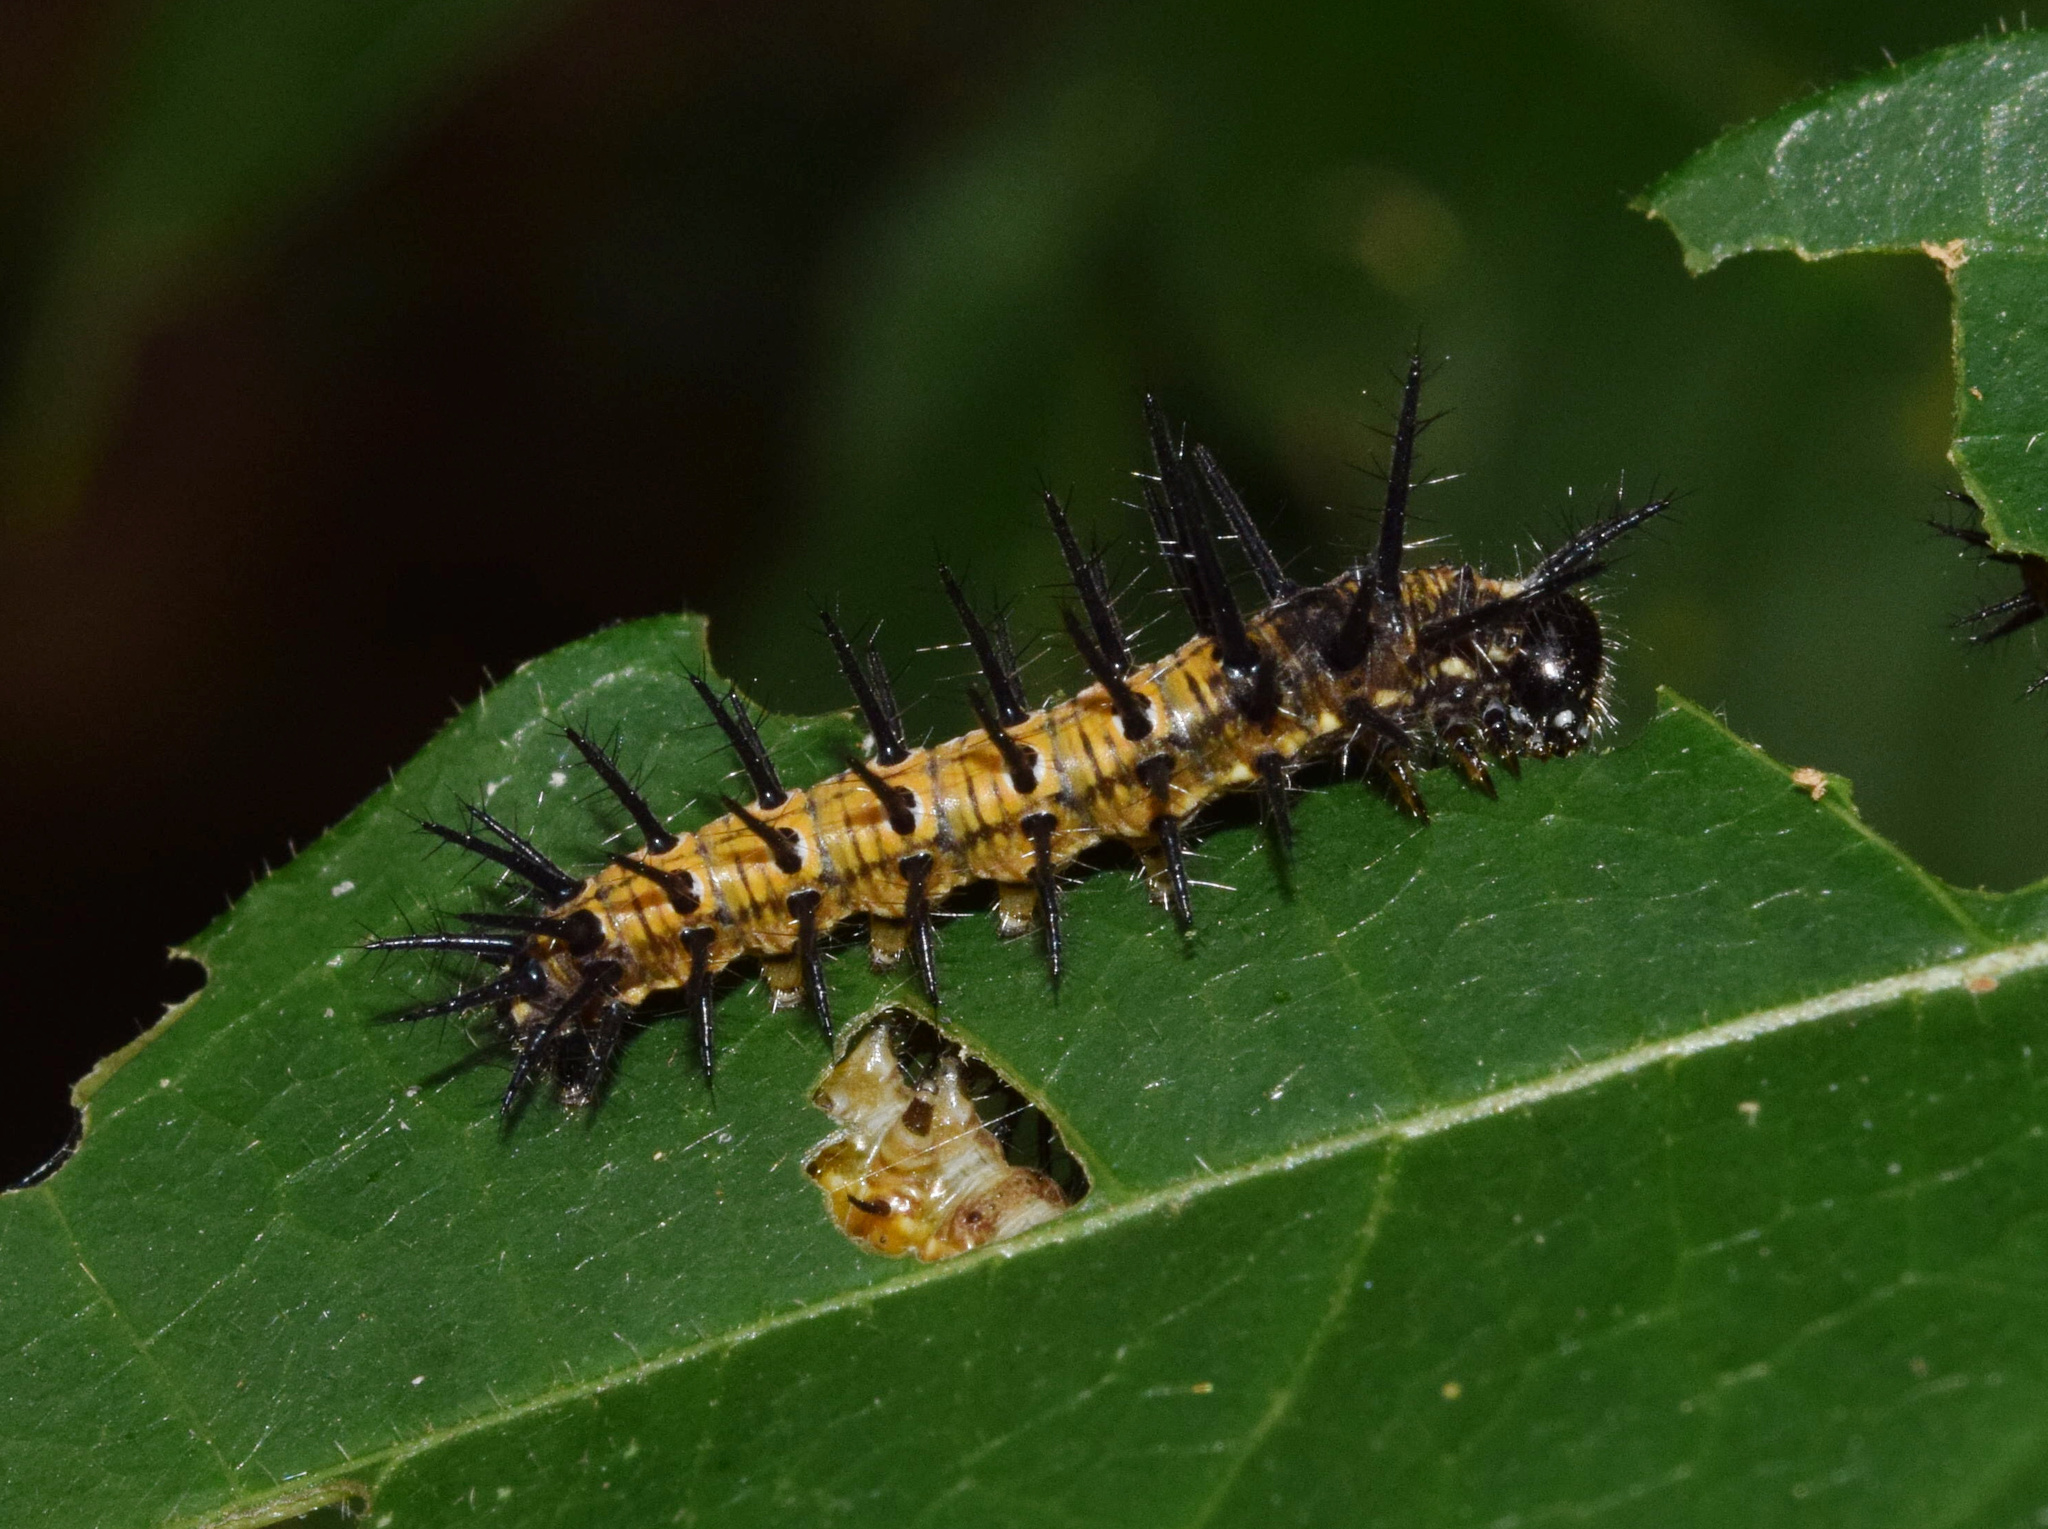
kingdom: Animalia
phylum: Arthropoda
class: Insecta
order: Lepidoptera
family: Nymphalidae
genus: Rubraea
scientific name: Rubraea
